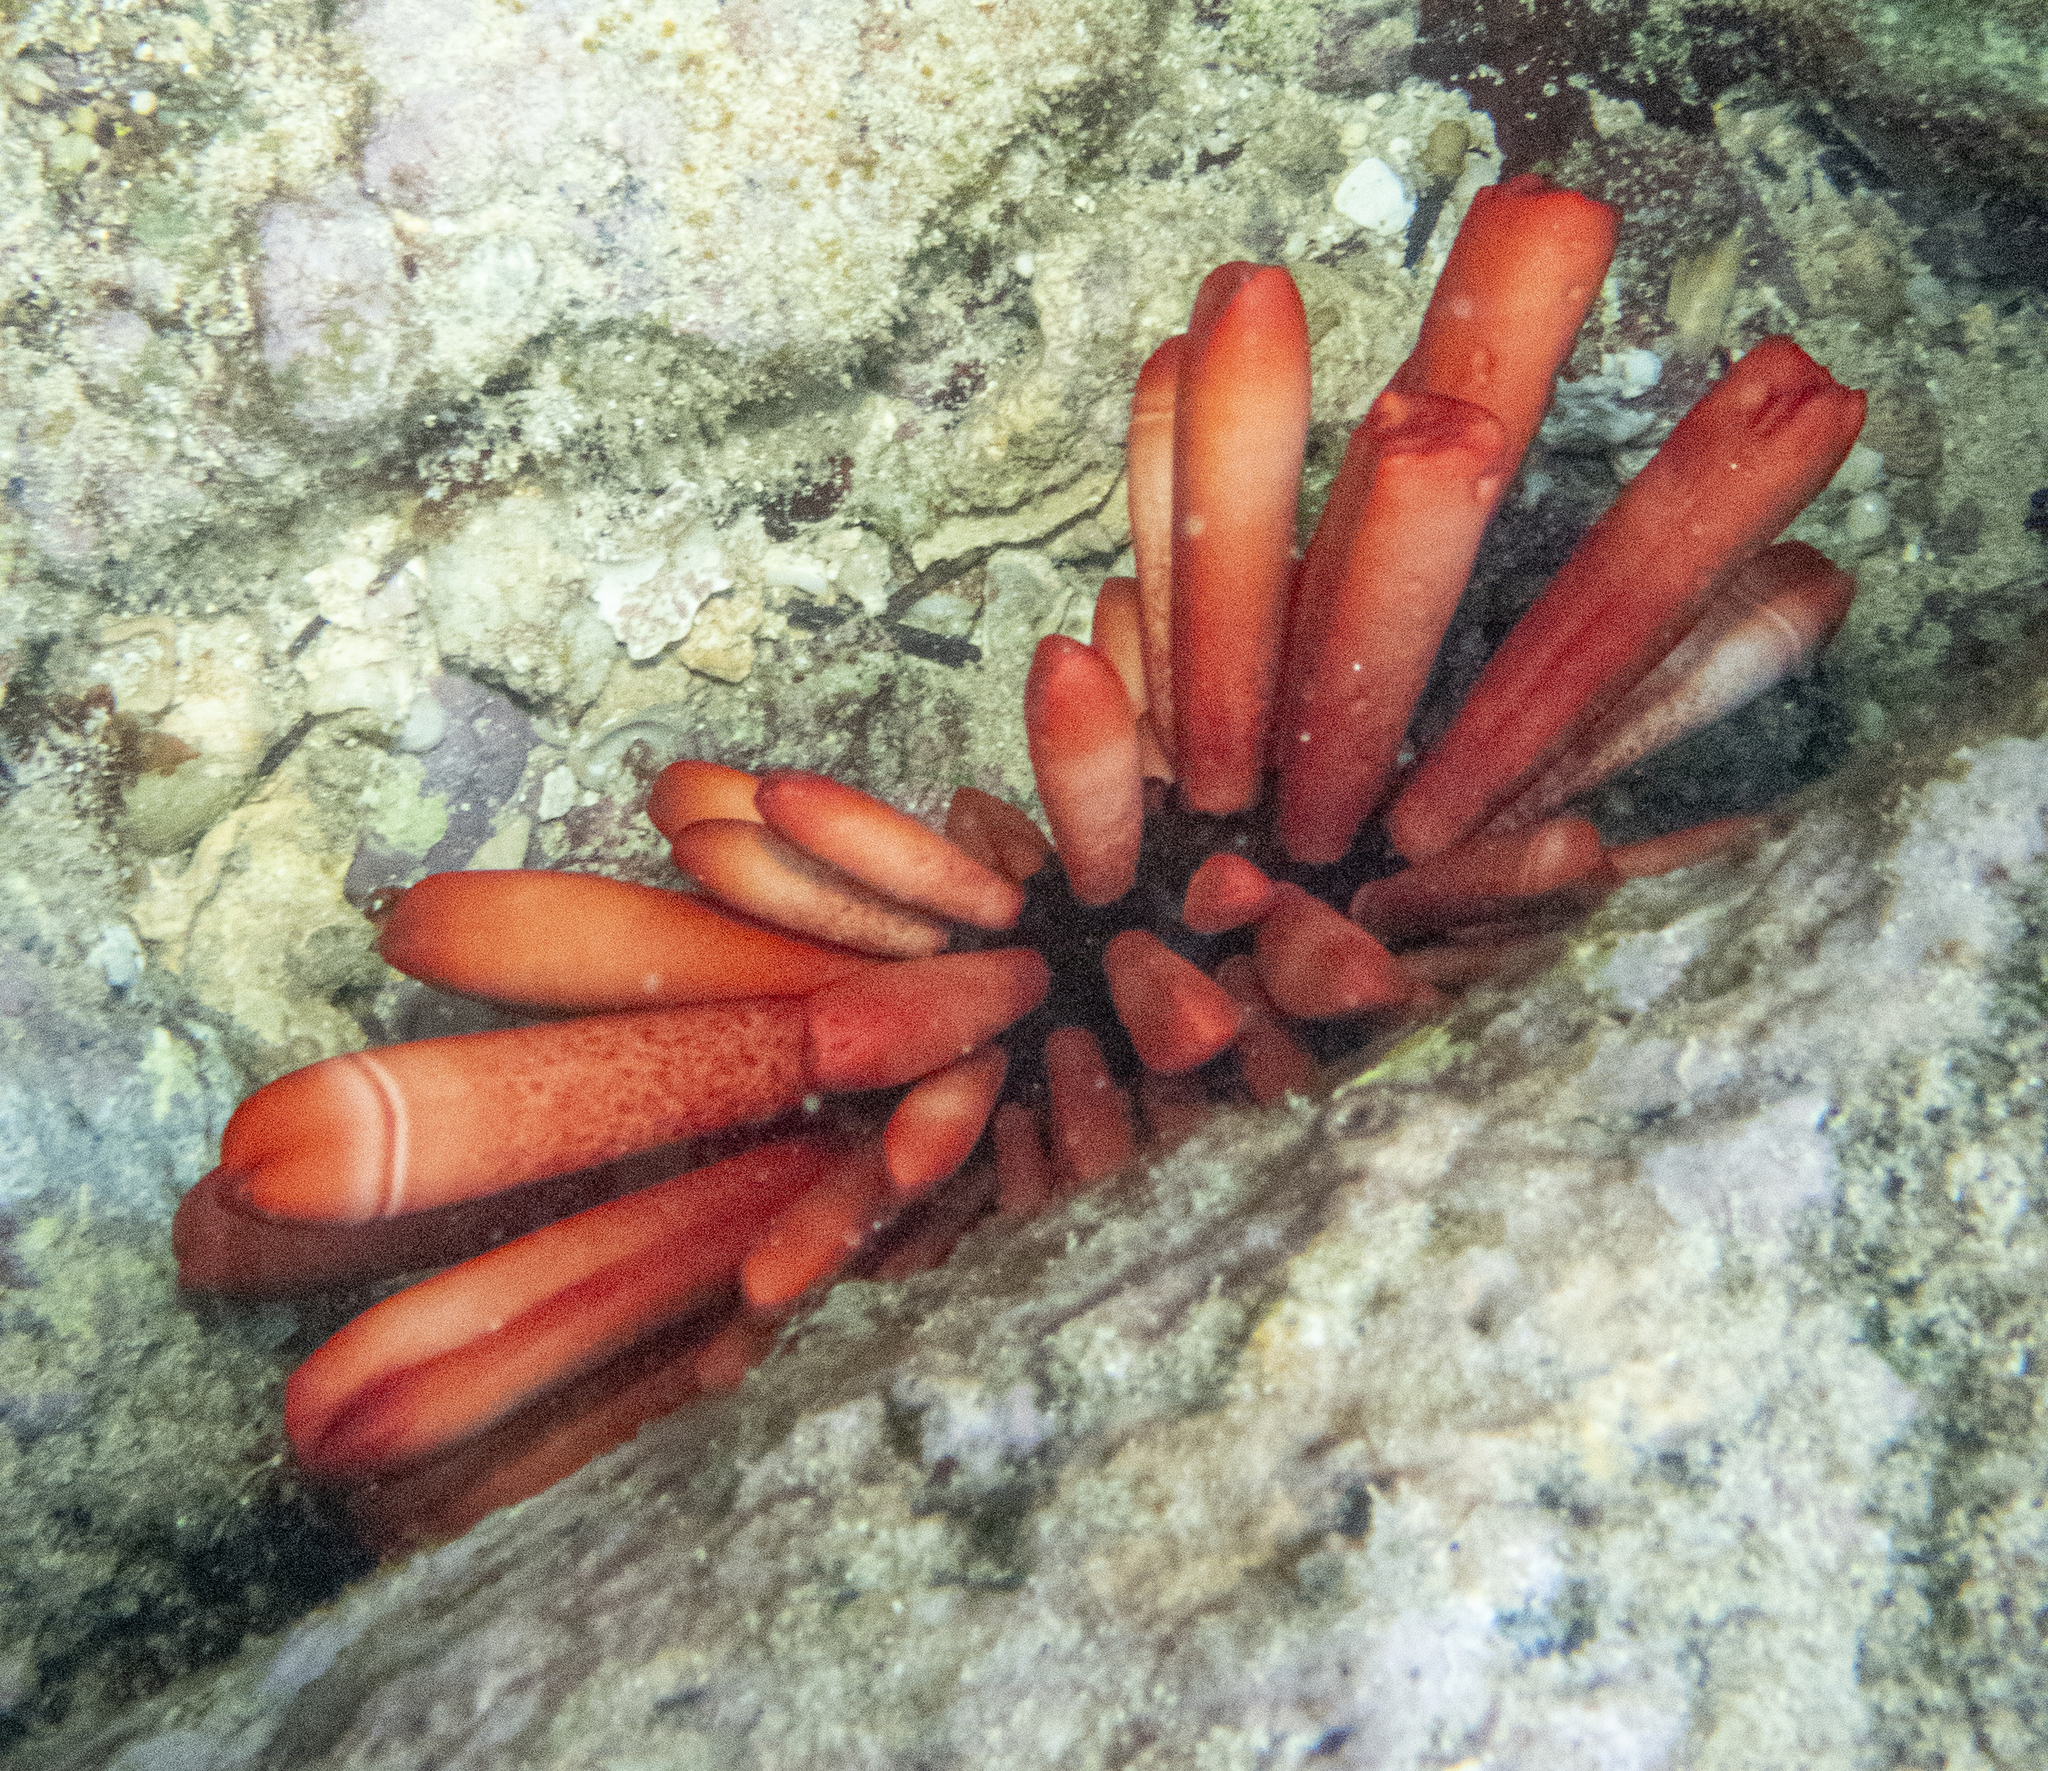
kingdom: Animalia
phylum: Echinodermata
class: Echinoidea
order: Camarodonta
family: Echinometridae
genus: Heterocentrotus
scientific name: Heterocentrotus mamillatus
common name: Slate pencil urchin
